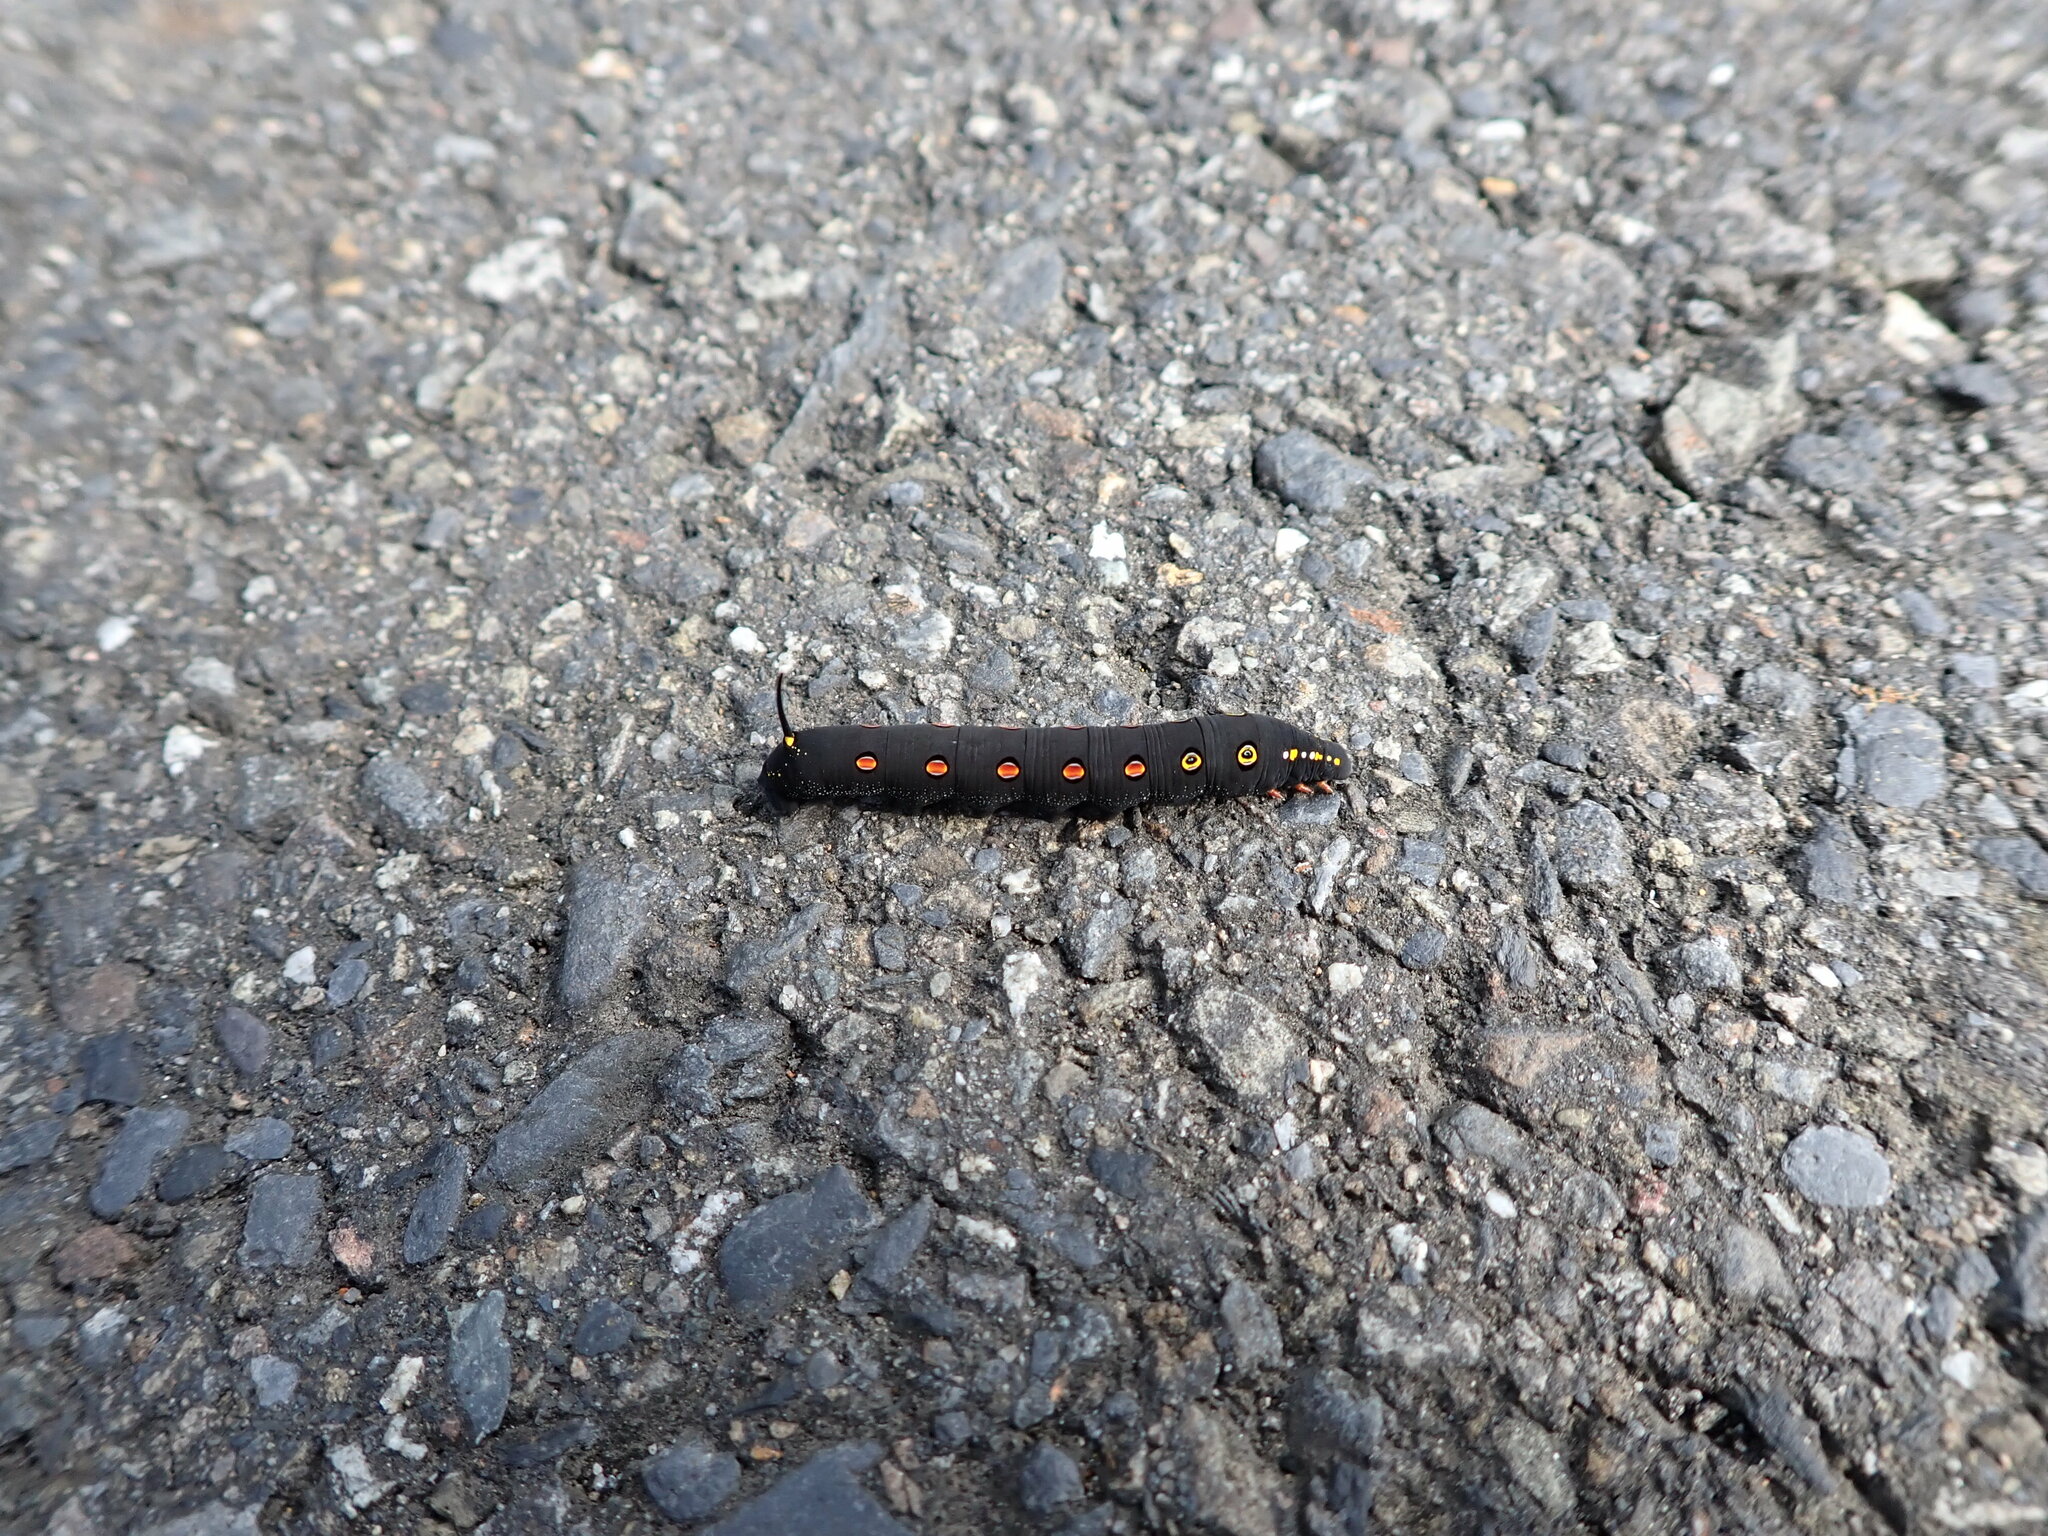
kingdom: Animalia
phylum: Arthropoda
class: Insecta
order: Lepidoptera
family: Sphingidae
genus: Theretra
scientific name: Theretra oldenlandiae
